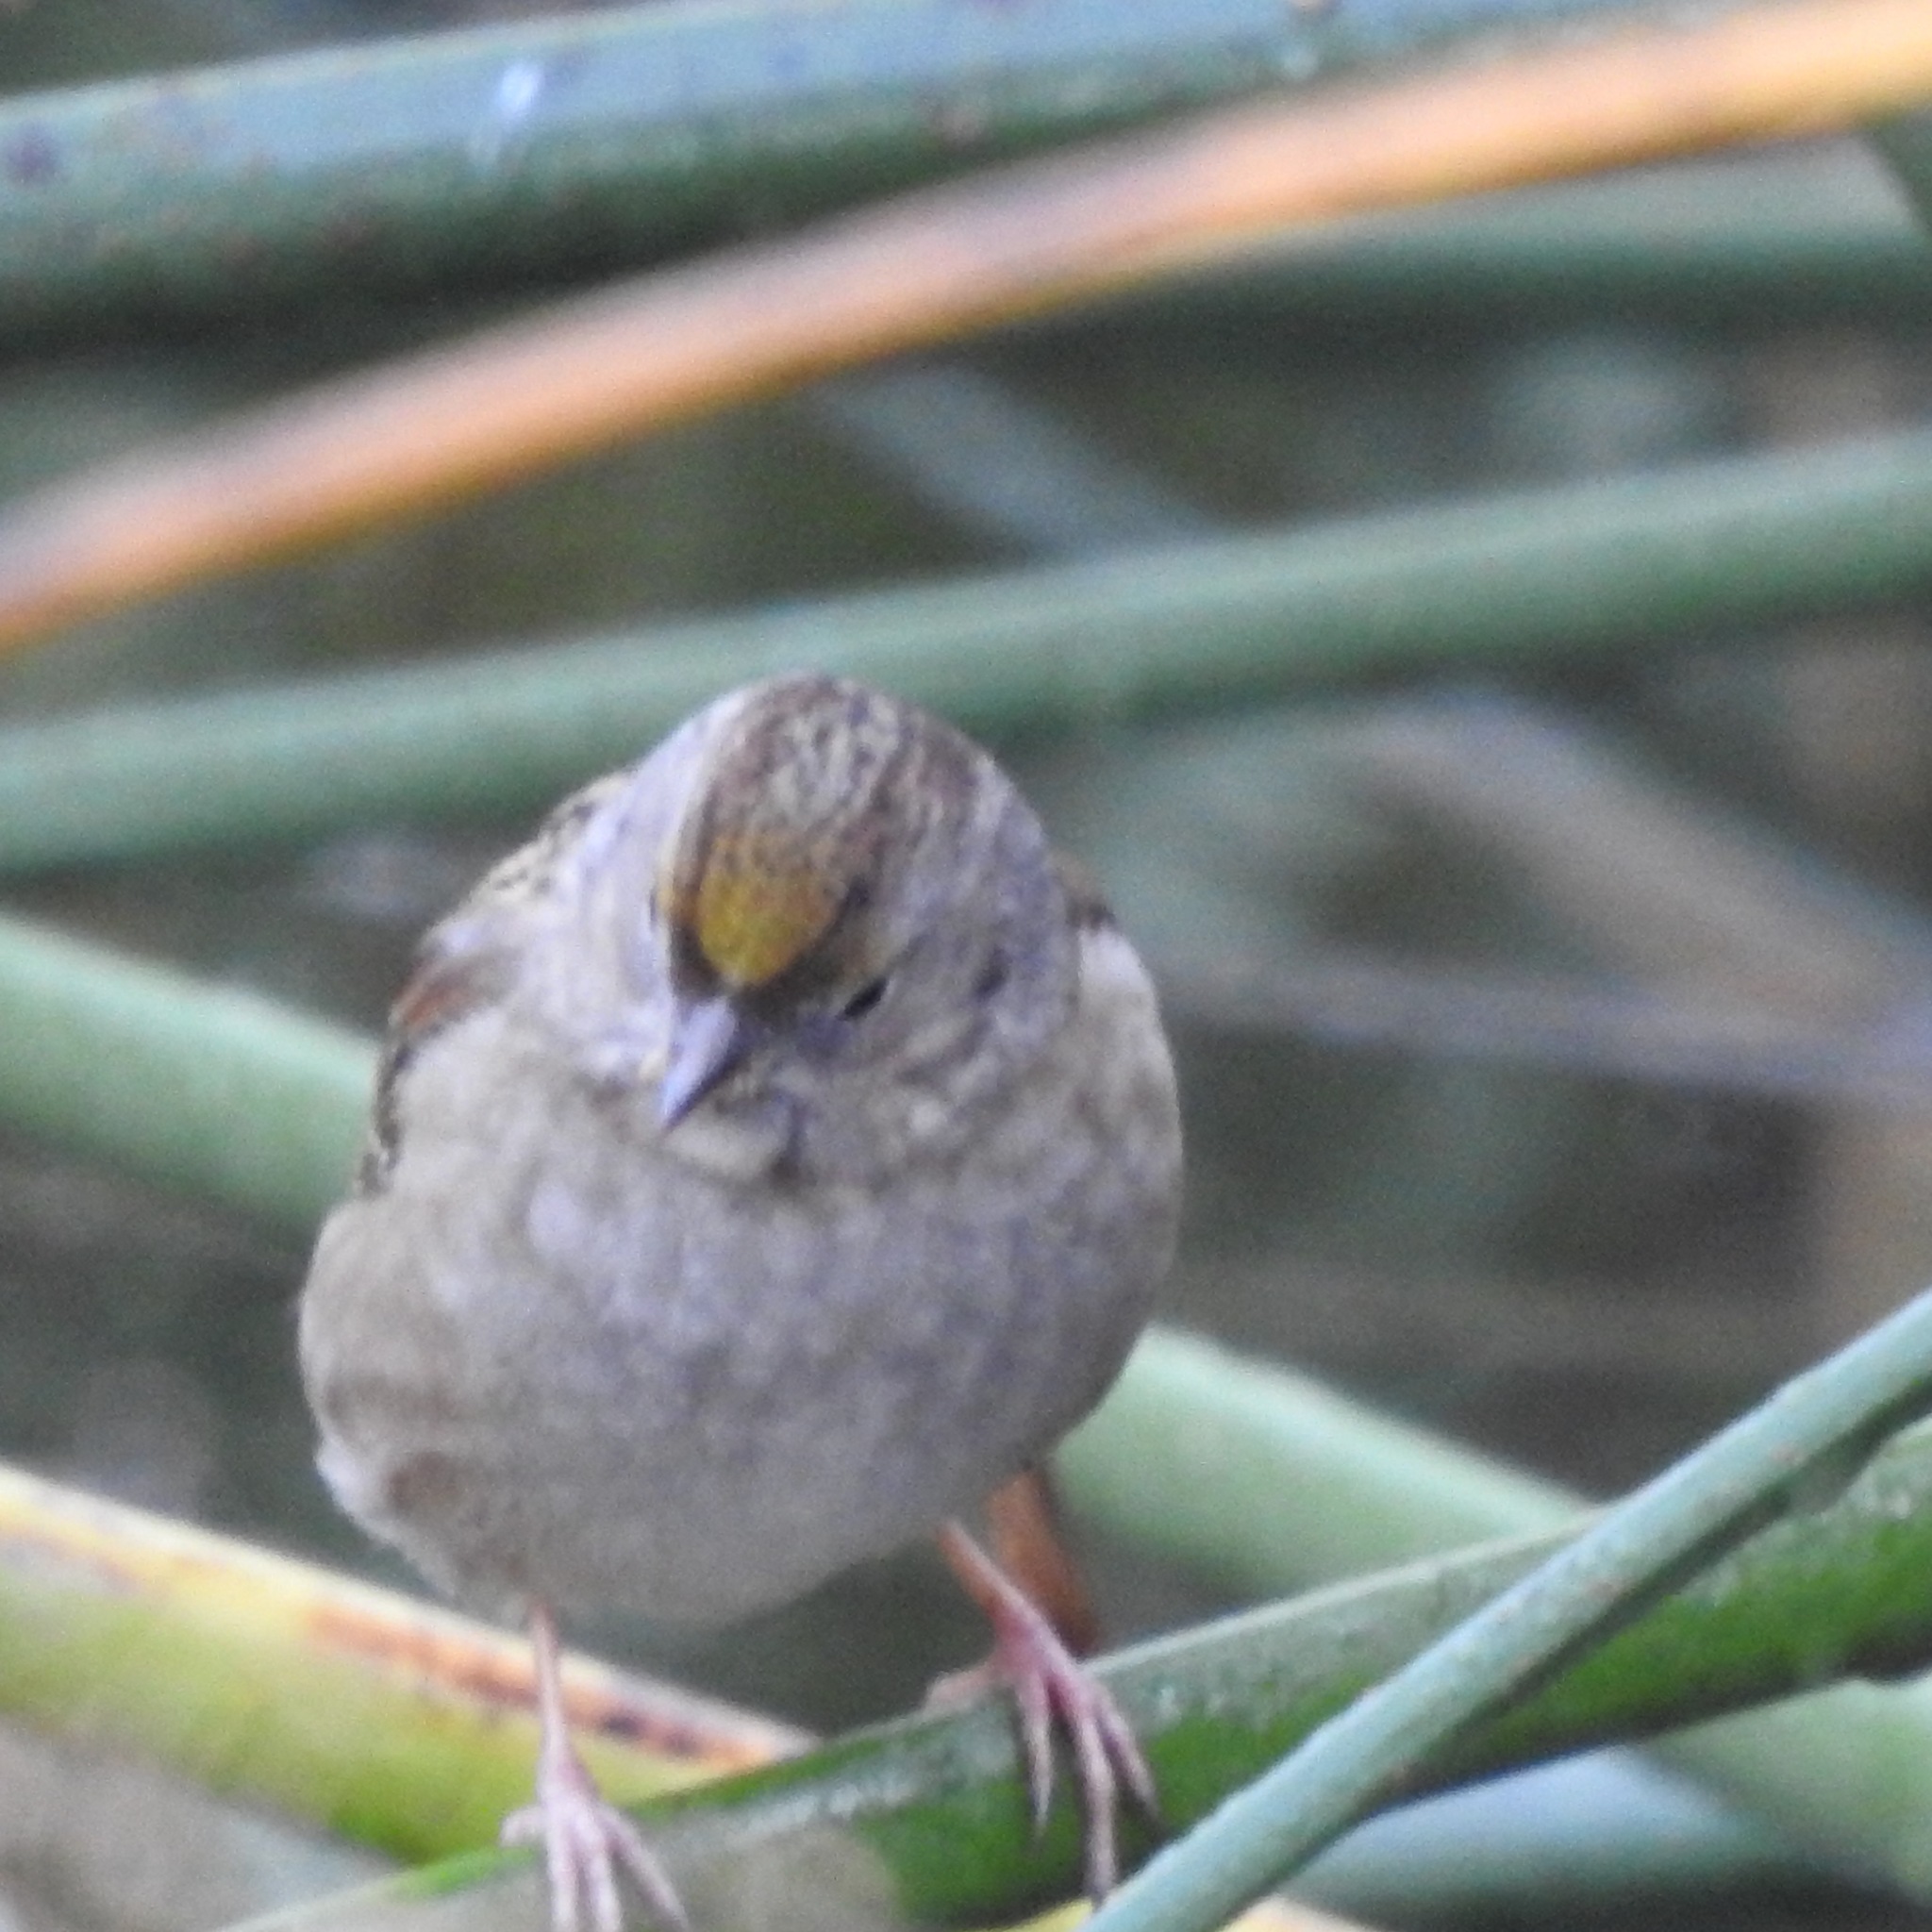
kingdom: Animalia
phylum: Chordata
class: Aves
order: Passeriformes
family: Passerellidae
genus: Zonotrichia
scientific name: Zonotrichia atricapilla
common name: Golden-crowned sparrow
